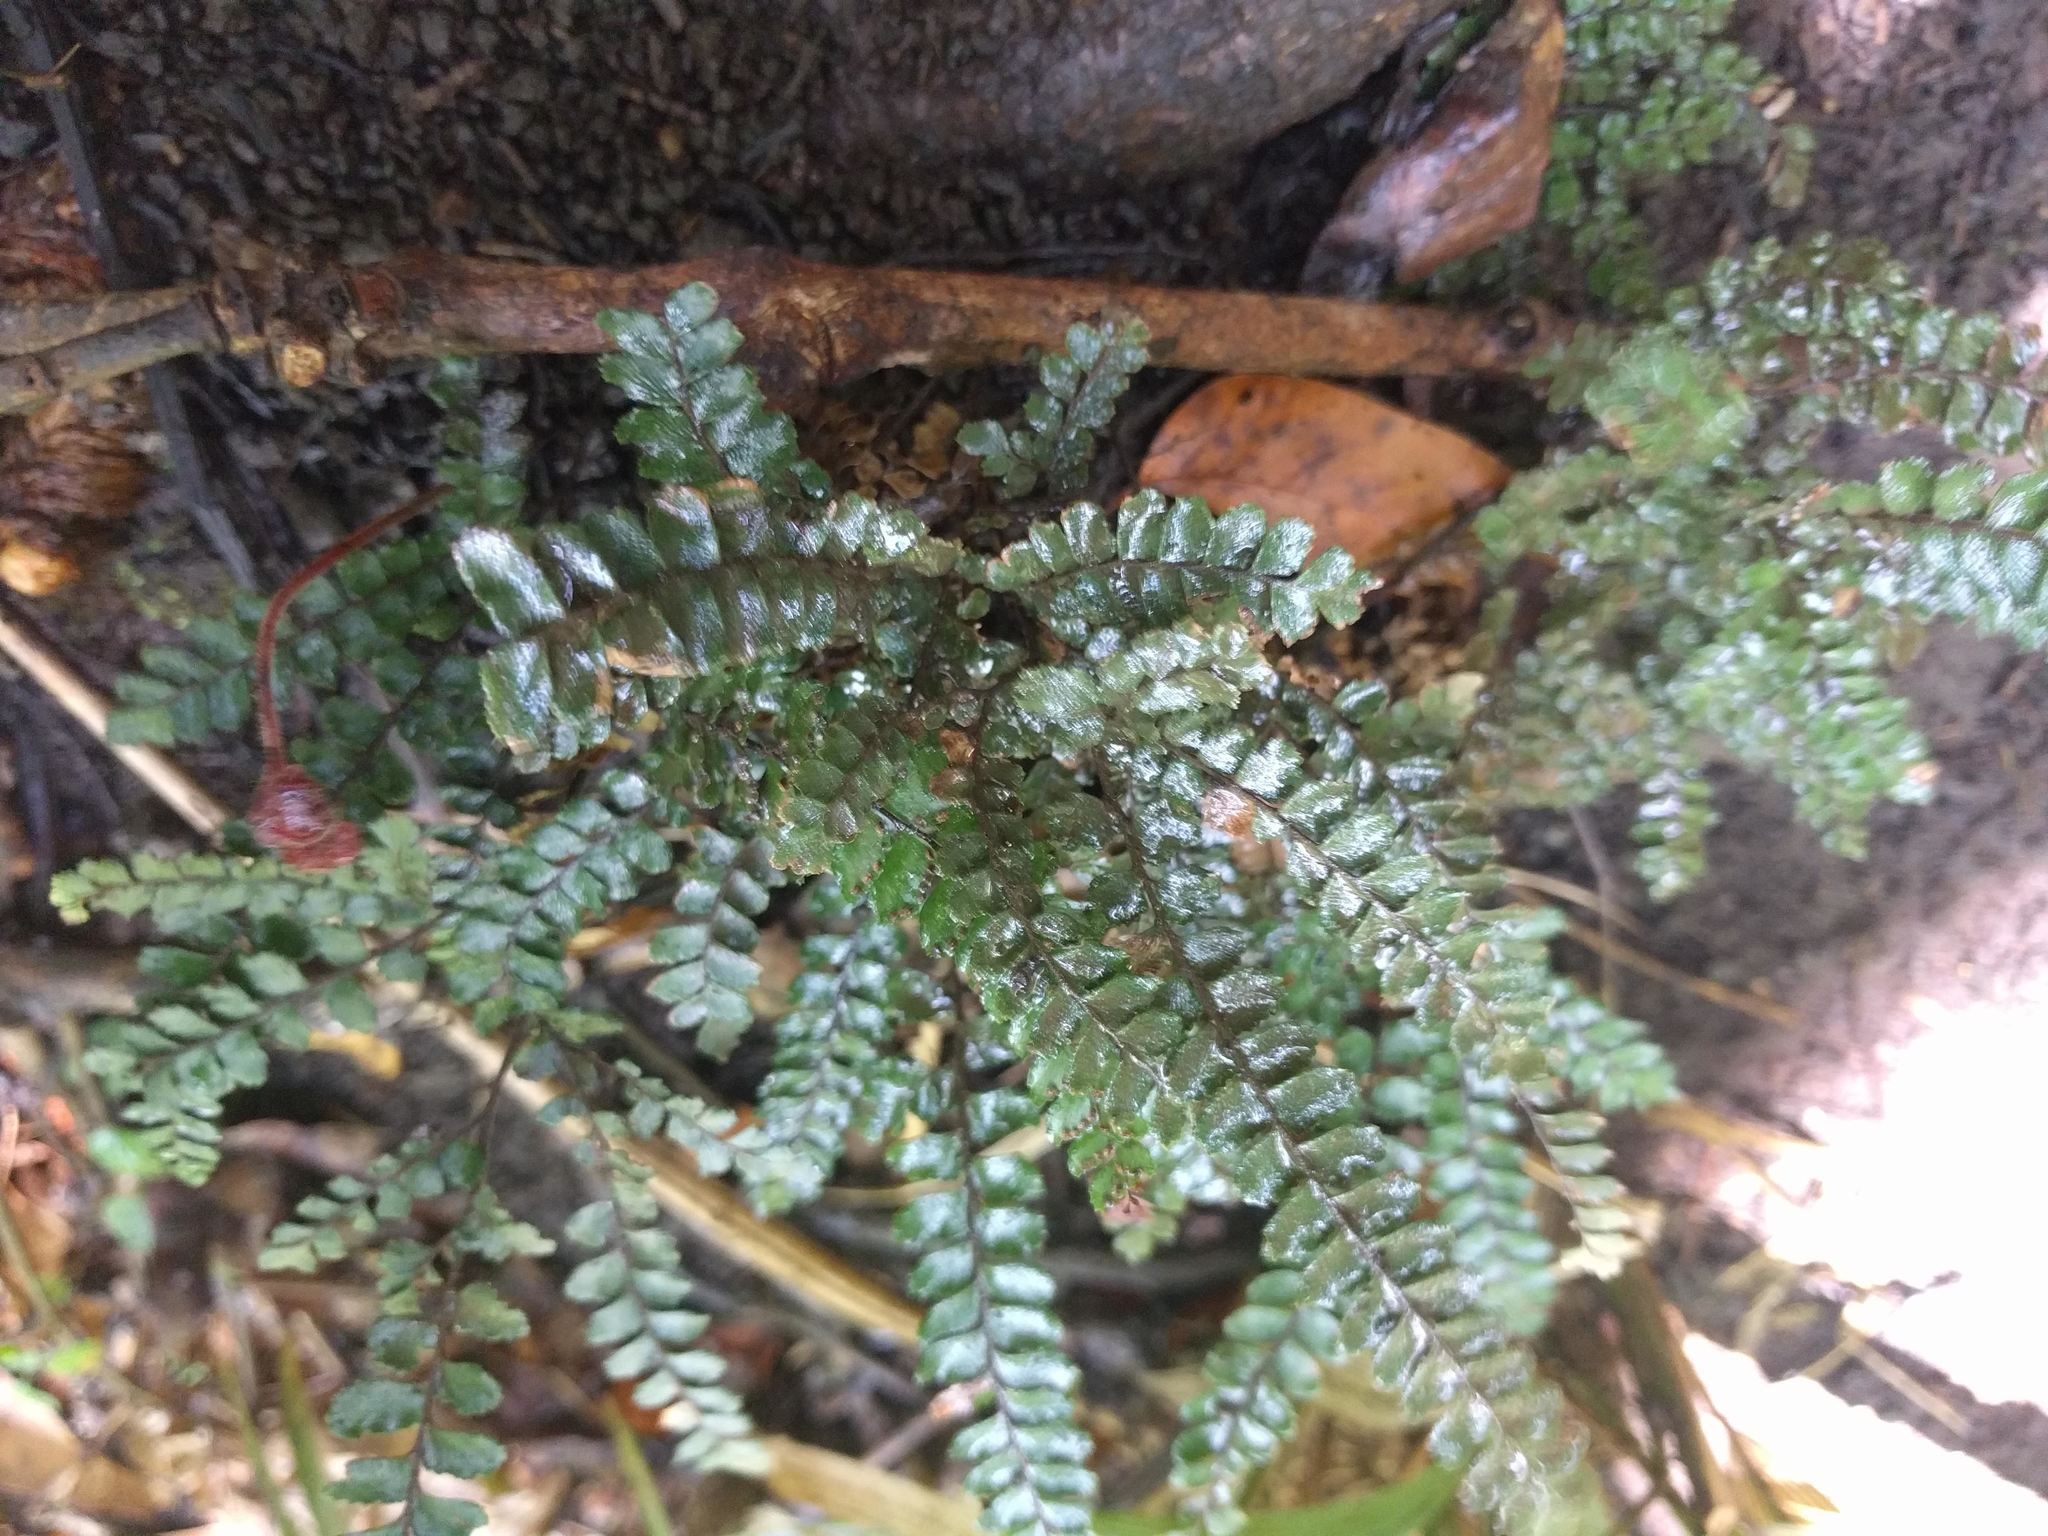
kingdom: Plantae
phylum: Tracheophyta
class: Polypodiopsida
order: Polypodiales
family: Pteridaceae
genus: Adiantum
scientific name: Adiantum hispidulum
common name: Rough maidenhair
